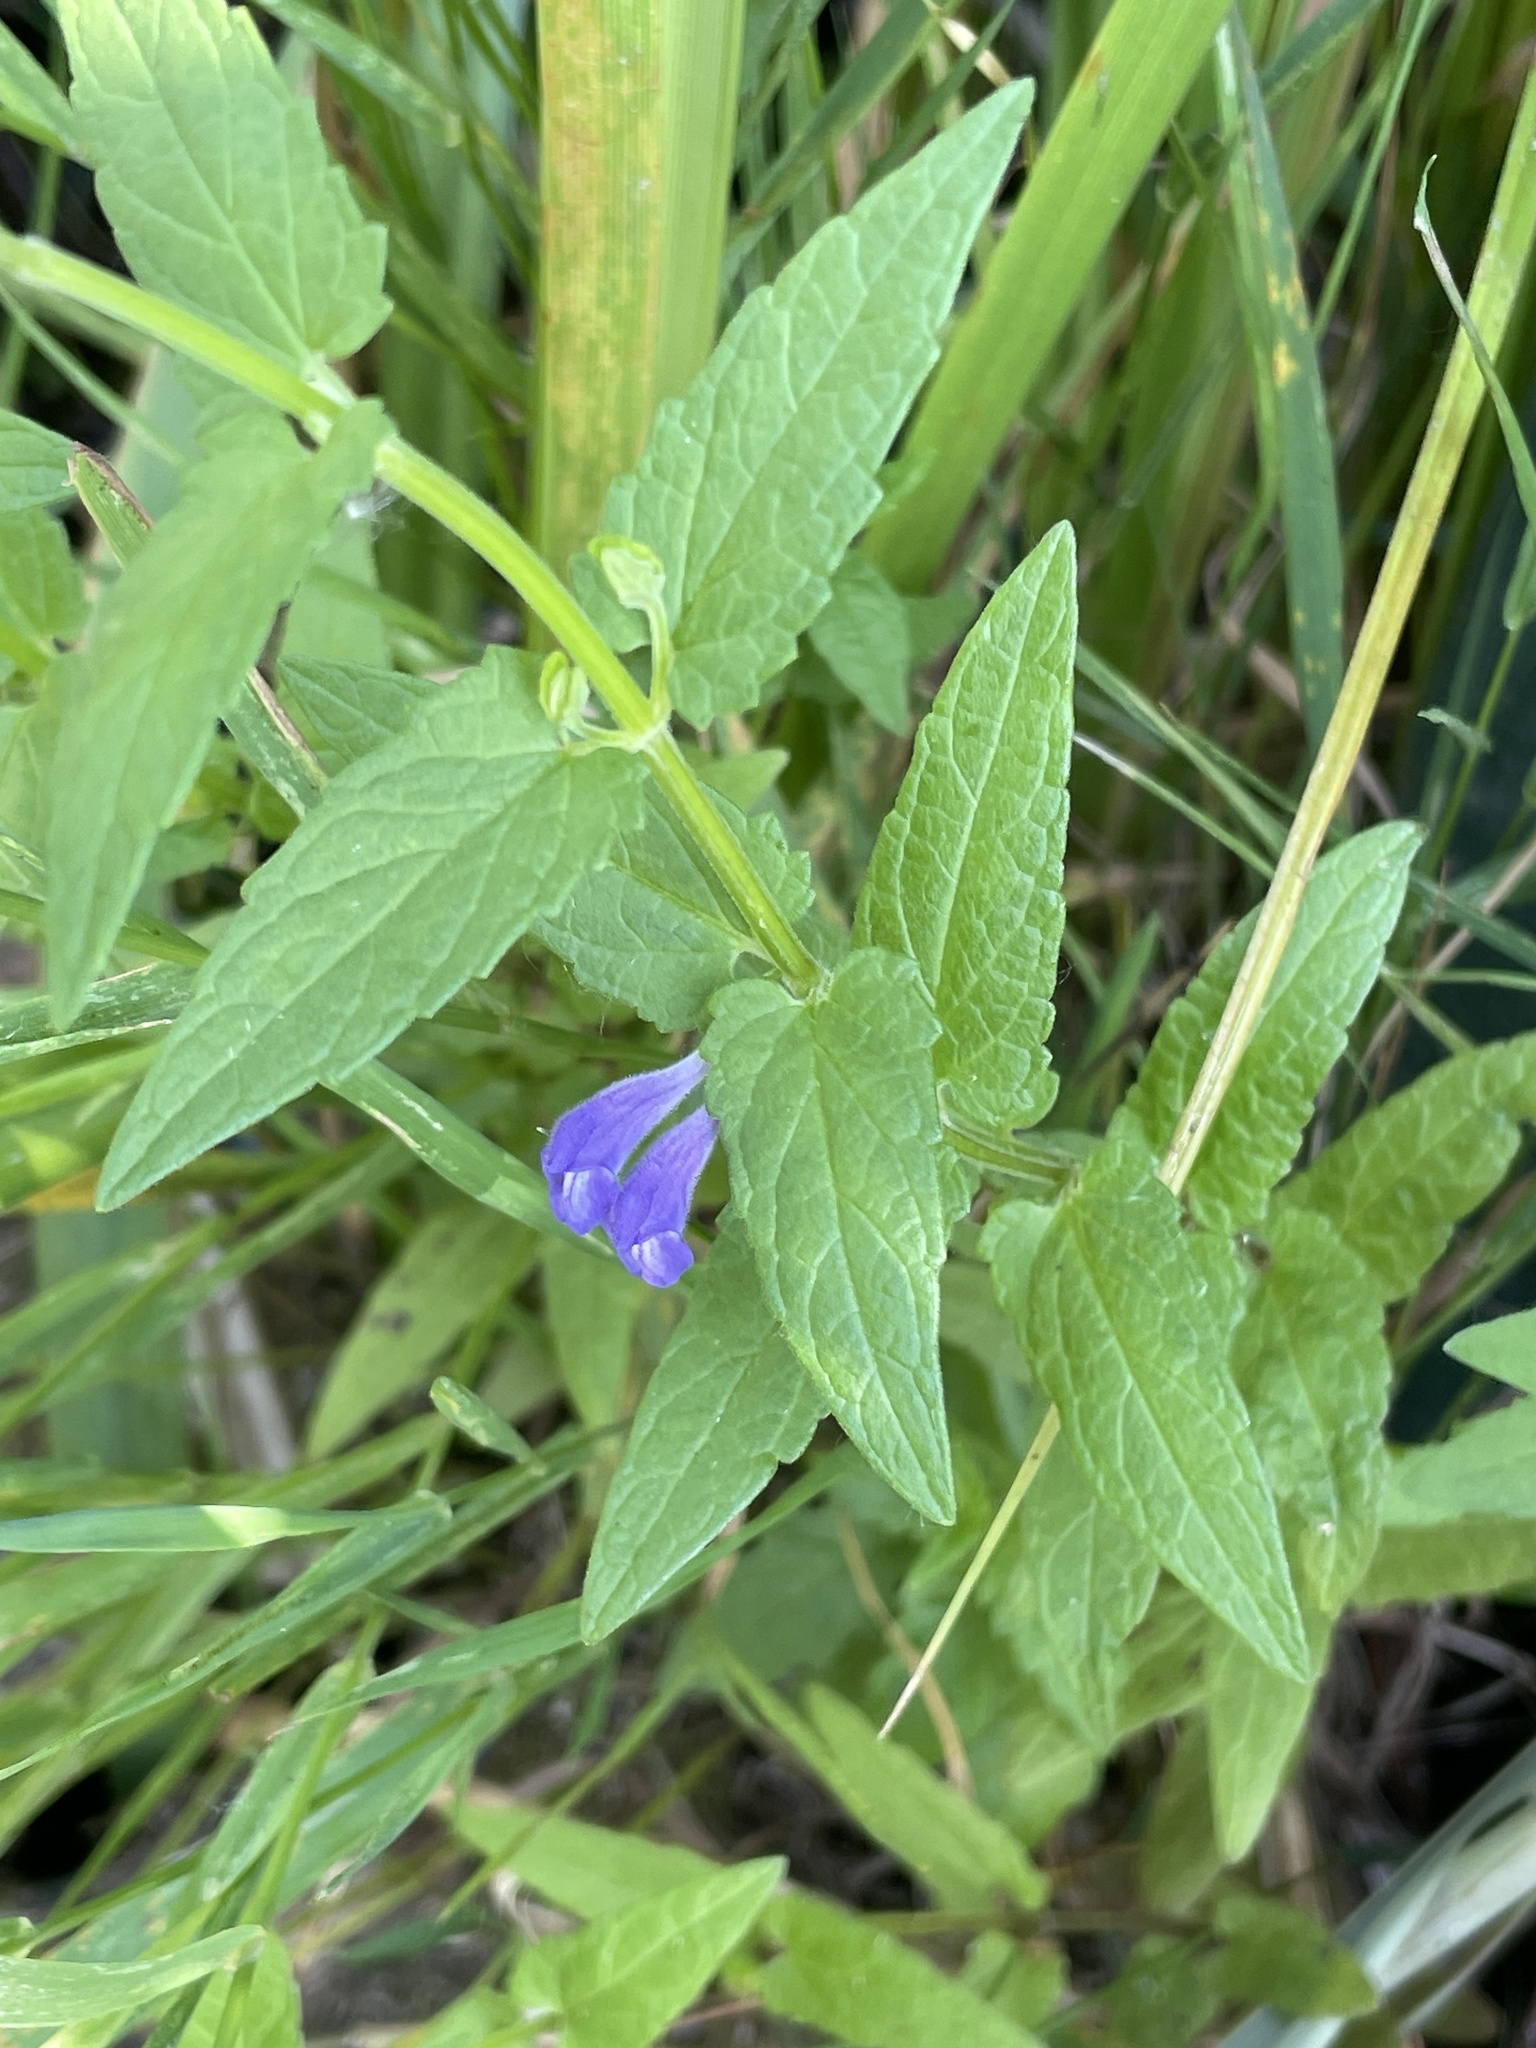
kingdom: Plantae
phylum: Tracheophyta
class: Magnoliopsida
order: Lamiales
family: Lamiaceae
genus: Scutellaria
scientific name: Scutellaria galericulata
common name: Skullcap
